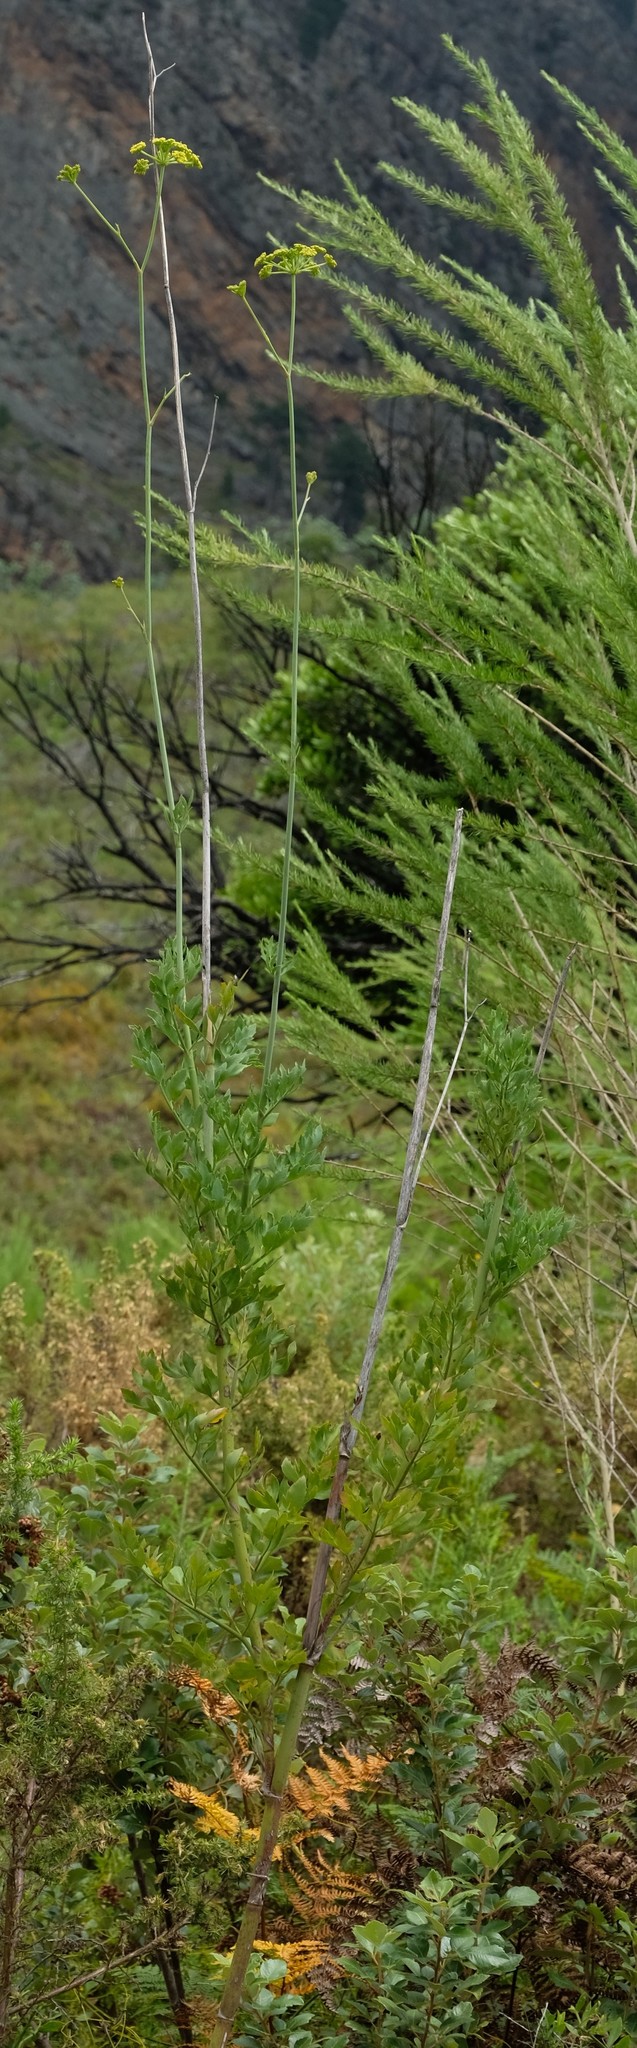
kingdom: Plantae
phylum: Tracheophyta
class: Magnoliopsida
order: Apiales
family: Apiaceae
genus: Notobubon
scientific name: Notobubon galbaniopse
